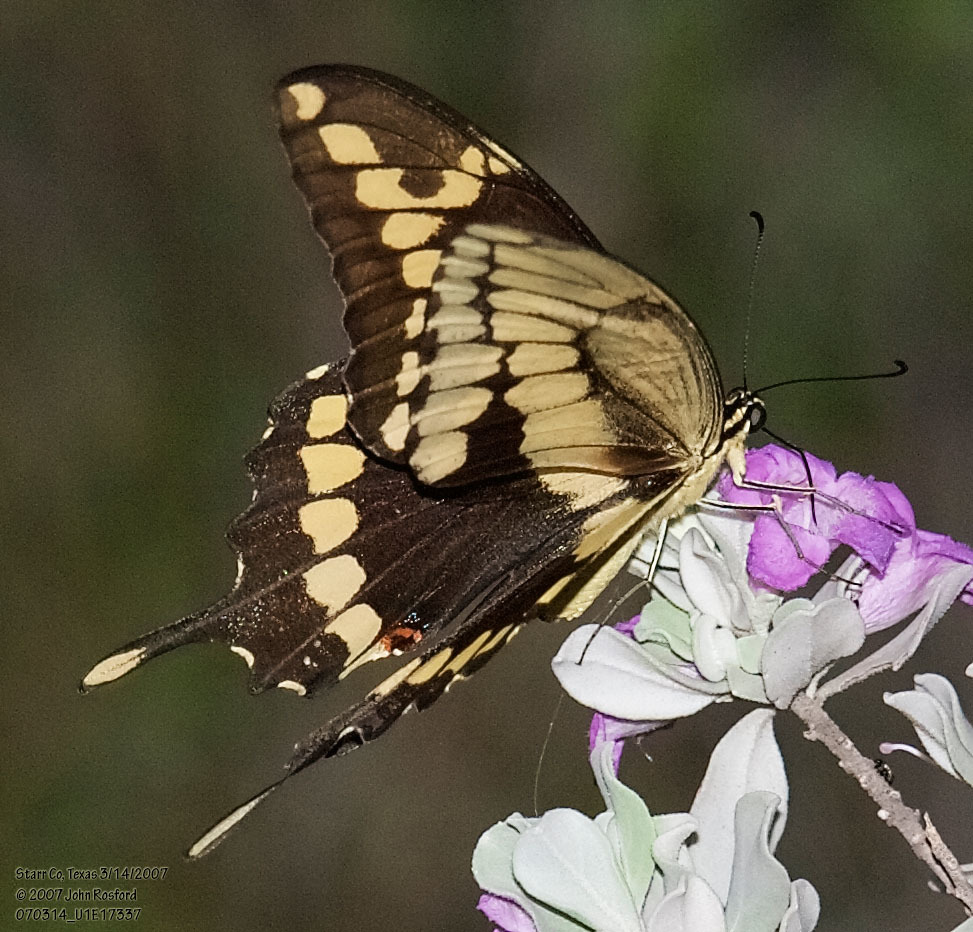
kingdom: Animalia
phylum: Arthropoda
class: Insecta
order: Lepidoptera
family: Papilionidae
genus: Papilio
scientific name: Papilio rumiko
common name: Western giant swallowtail
